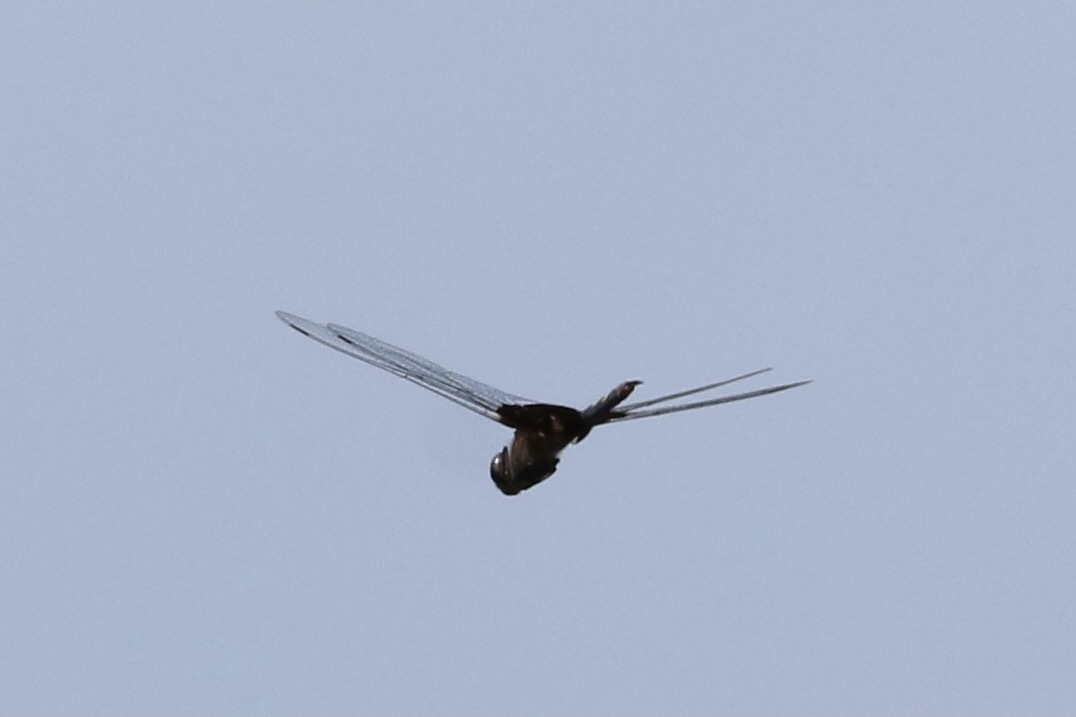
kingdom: Animalia
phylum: Arthropoda
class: Insecta
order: Odonata
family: Libellulidae
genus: Tramea
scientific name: Tramea lacerata
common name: Black saddlebags
